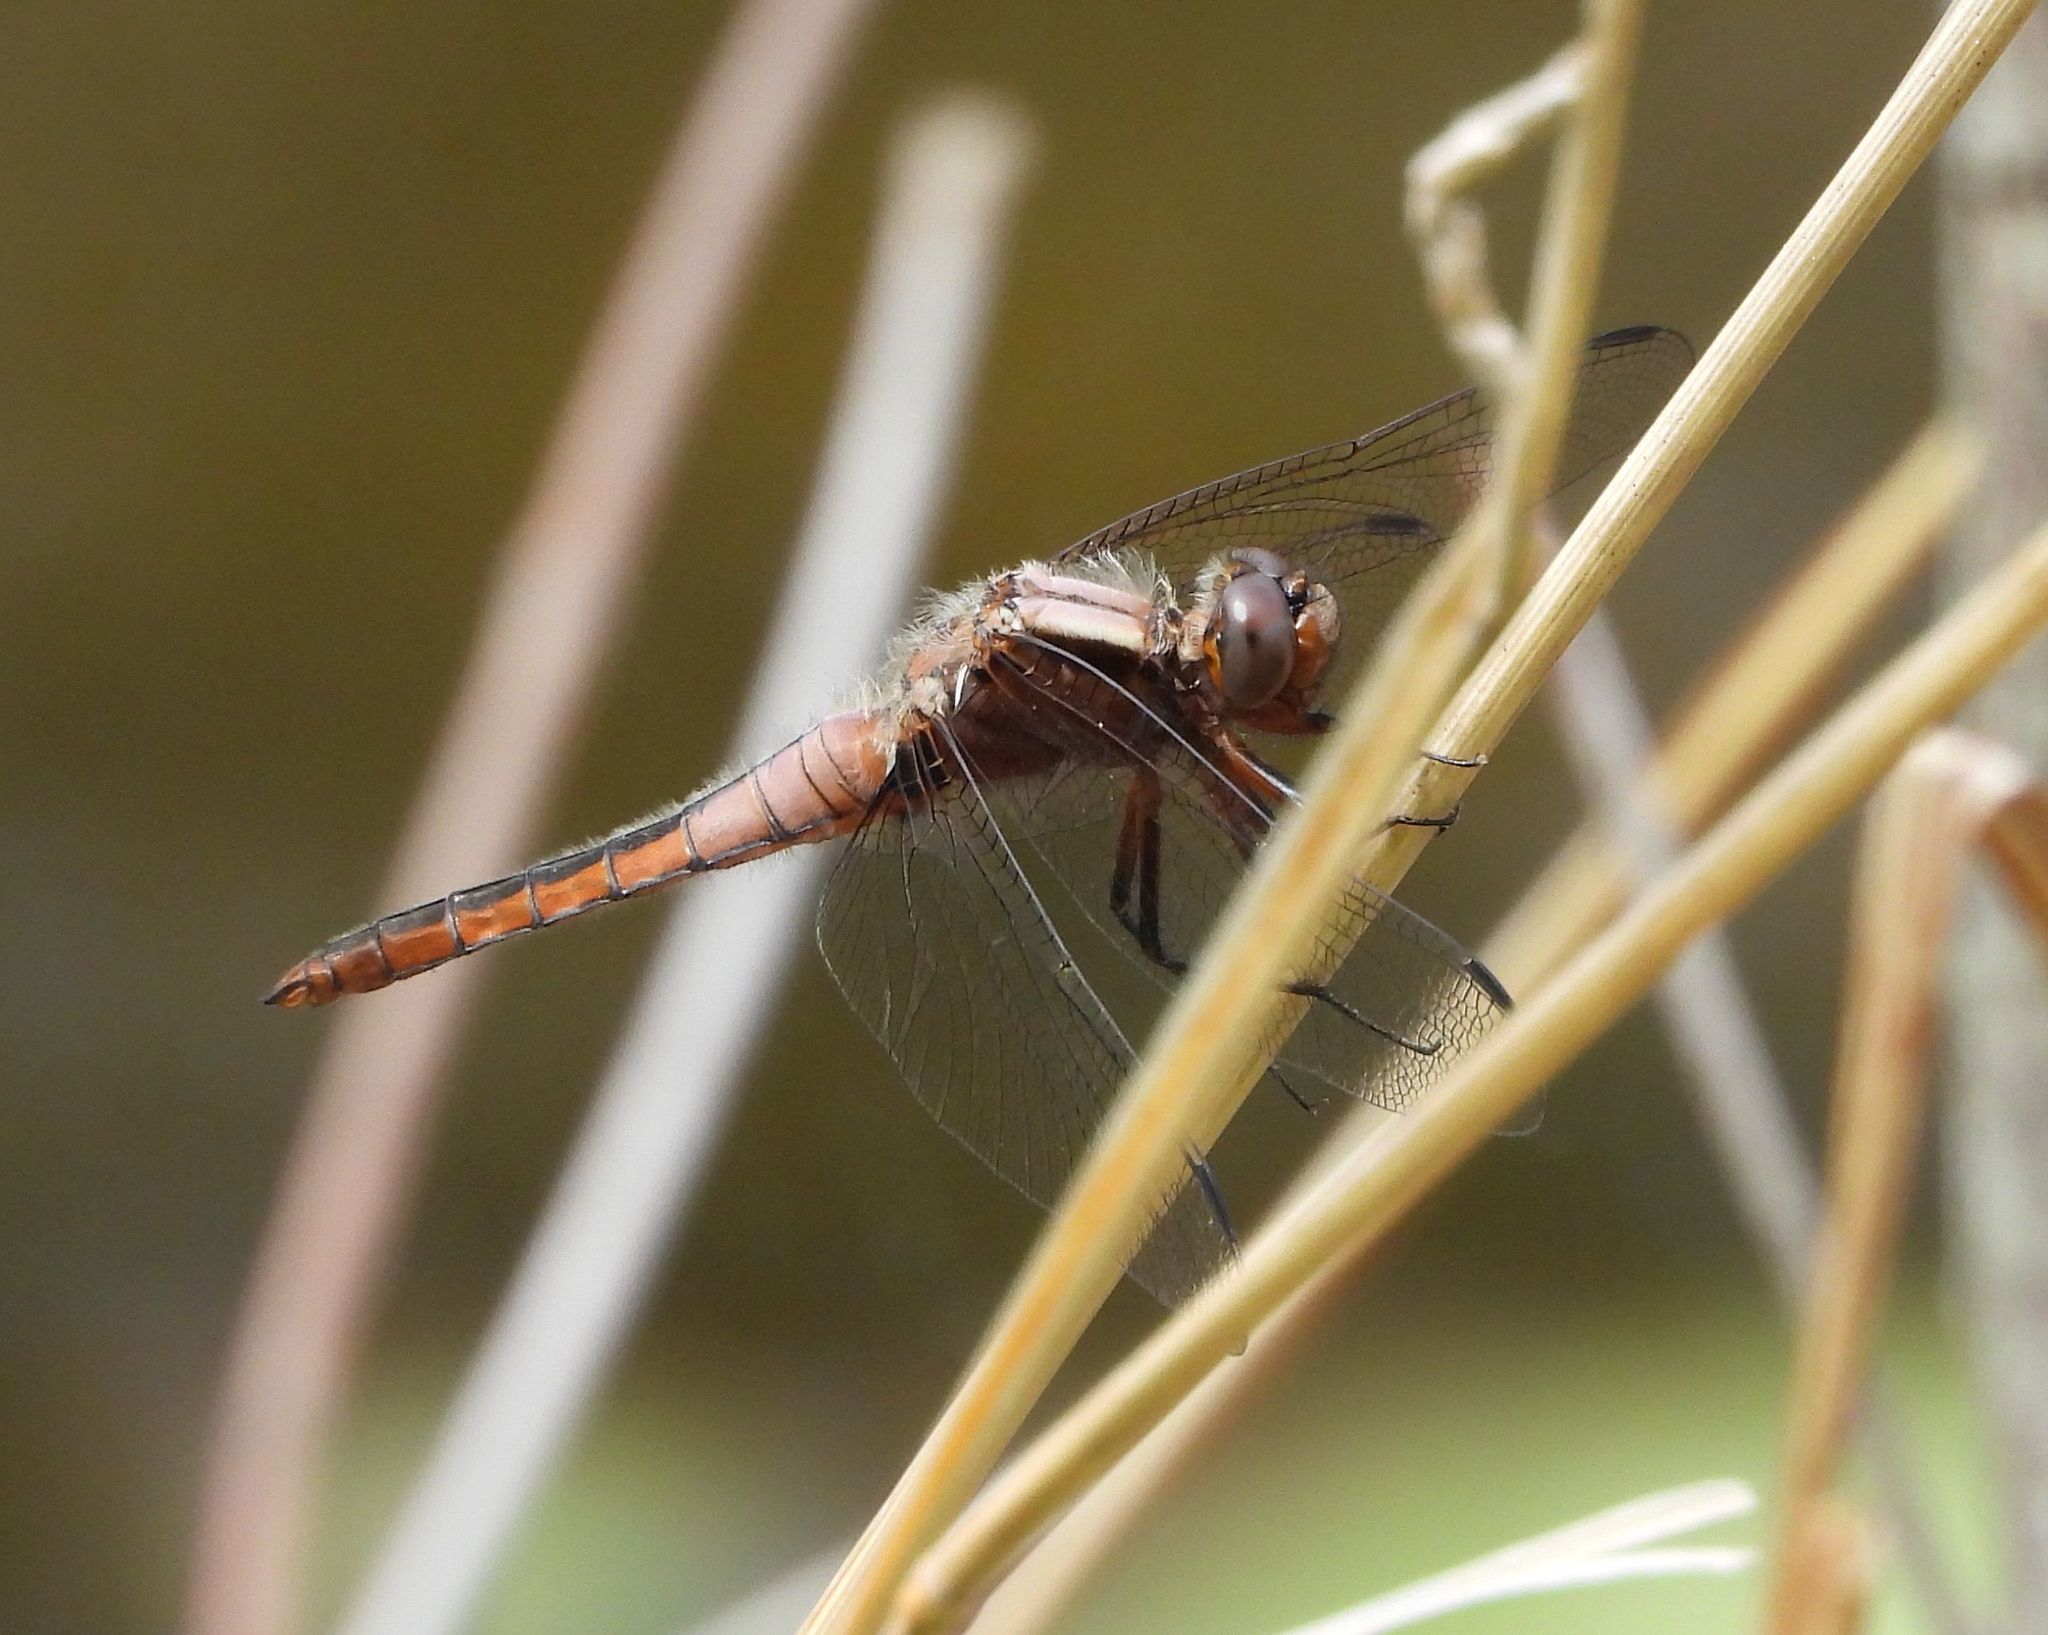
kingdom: Animalia
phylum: Arthropoda
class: Insecta
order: Odonata
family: Libellulidae
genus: Ladona
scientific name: Ladona julia
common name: Chalk-fronted corporal
